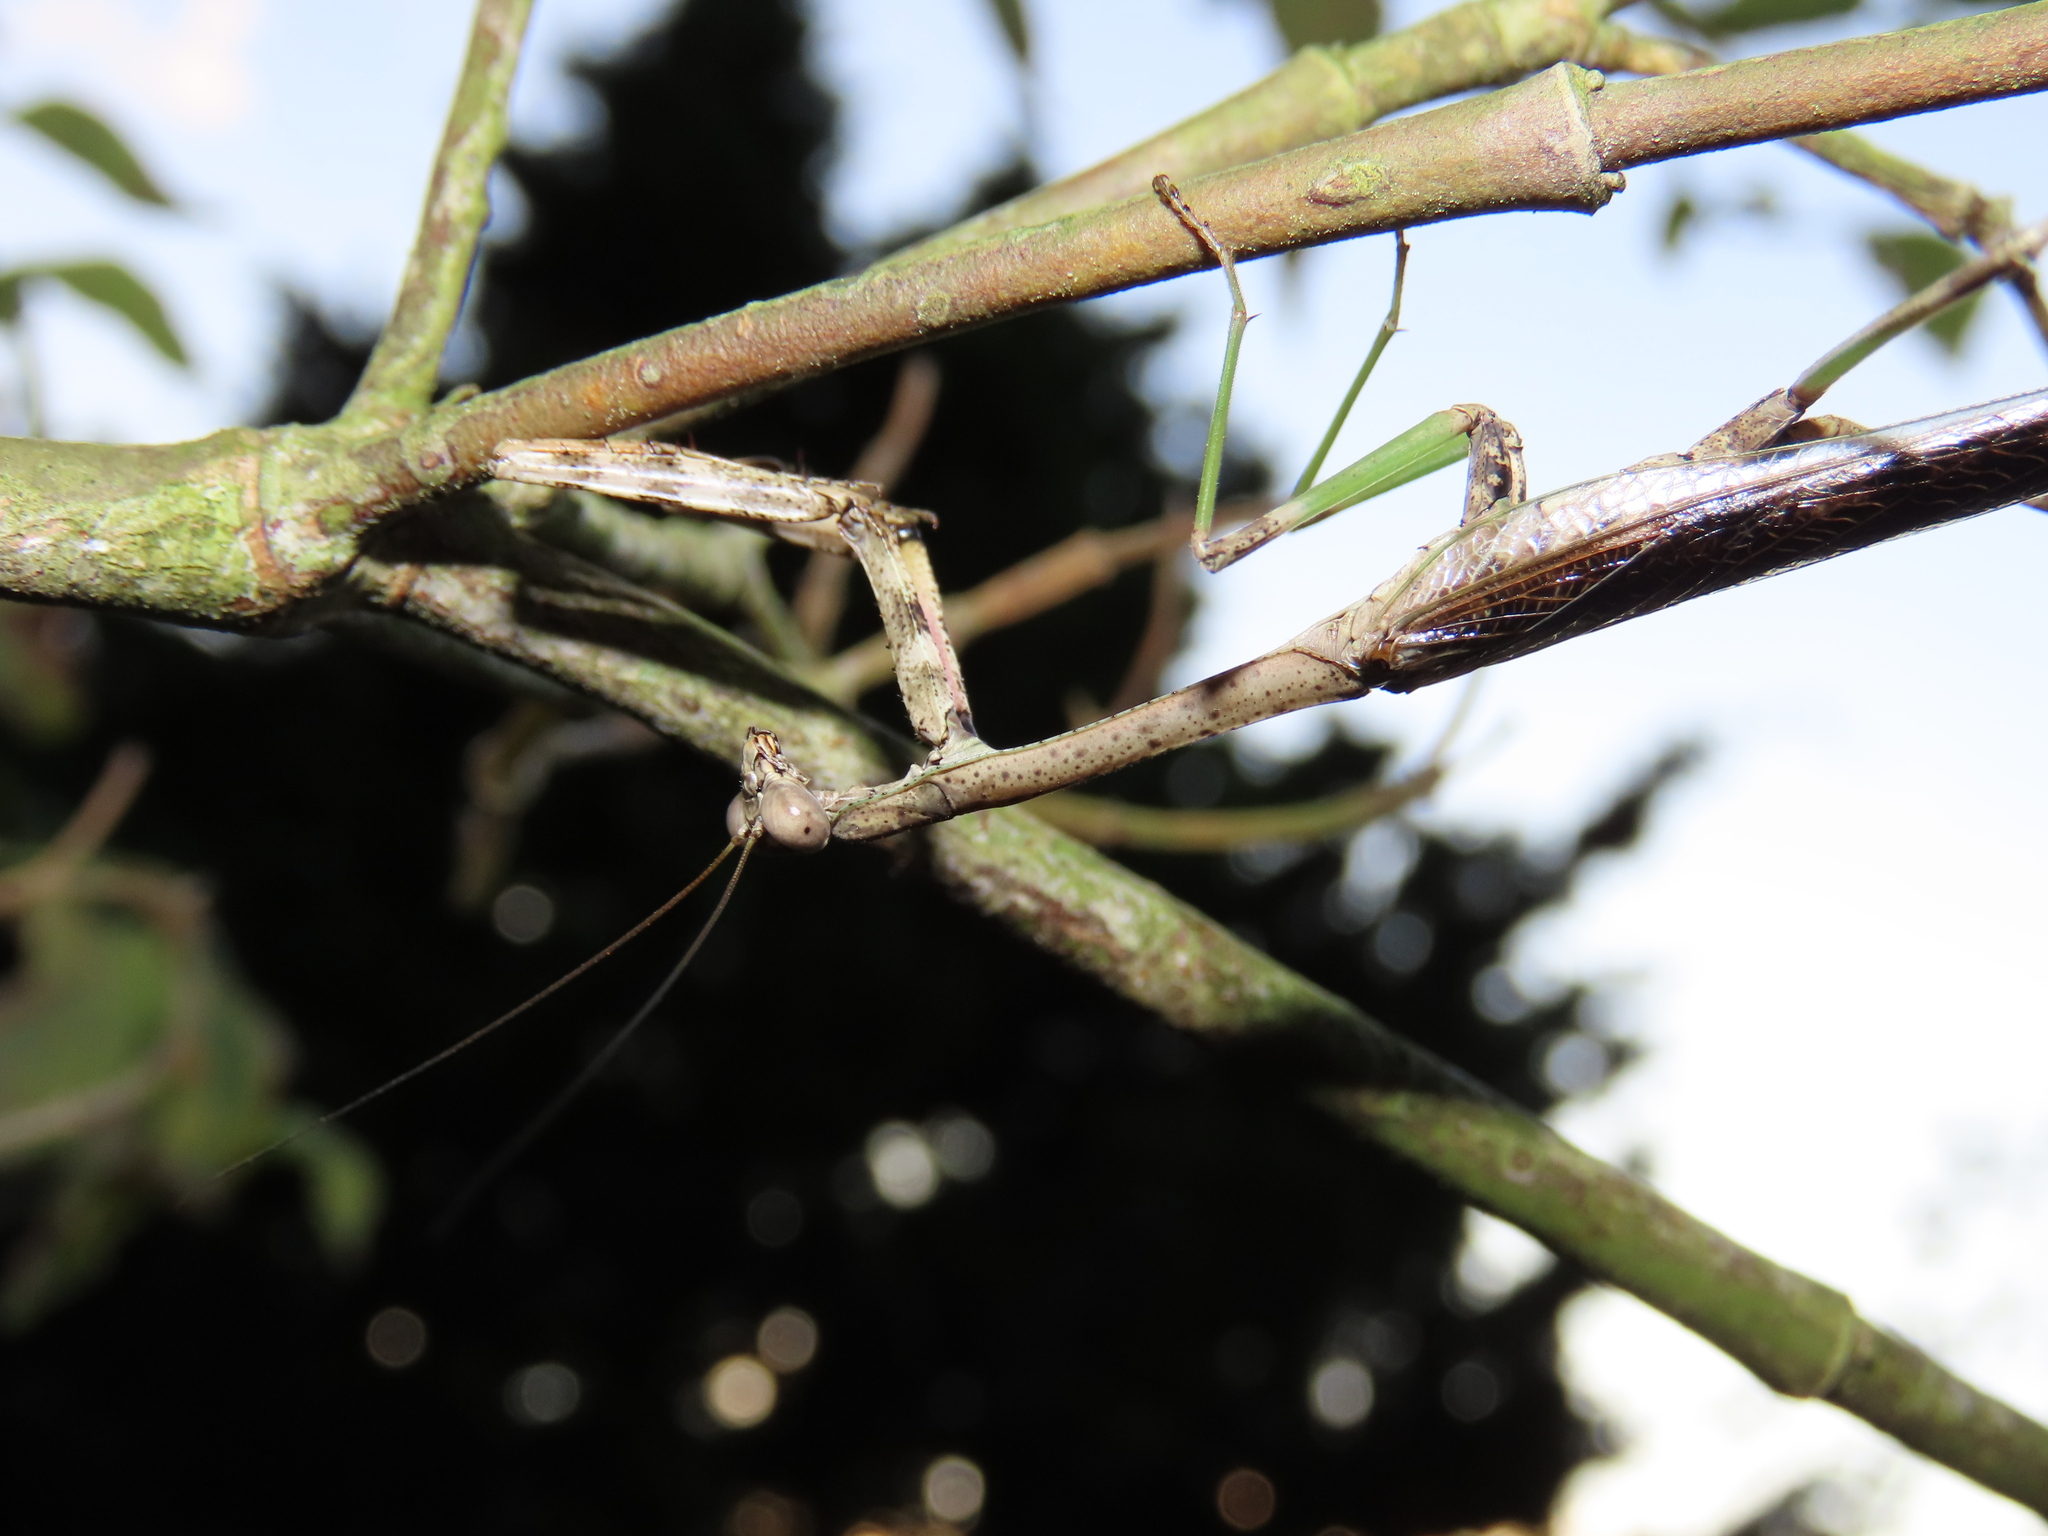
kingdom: Animalia
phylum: Arthropoda
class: Insecta
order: Mantodea
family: Mantidae
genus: Stagmomantis
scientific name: Stagmomantis carolina
